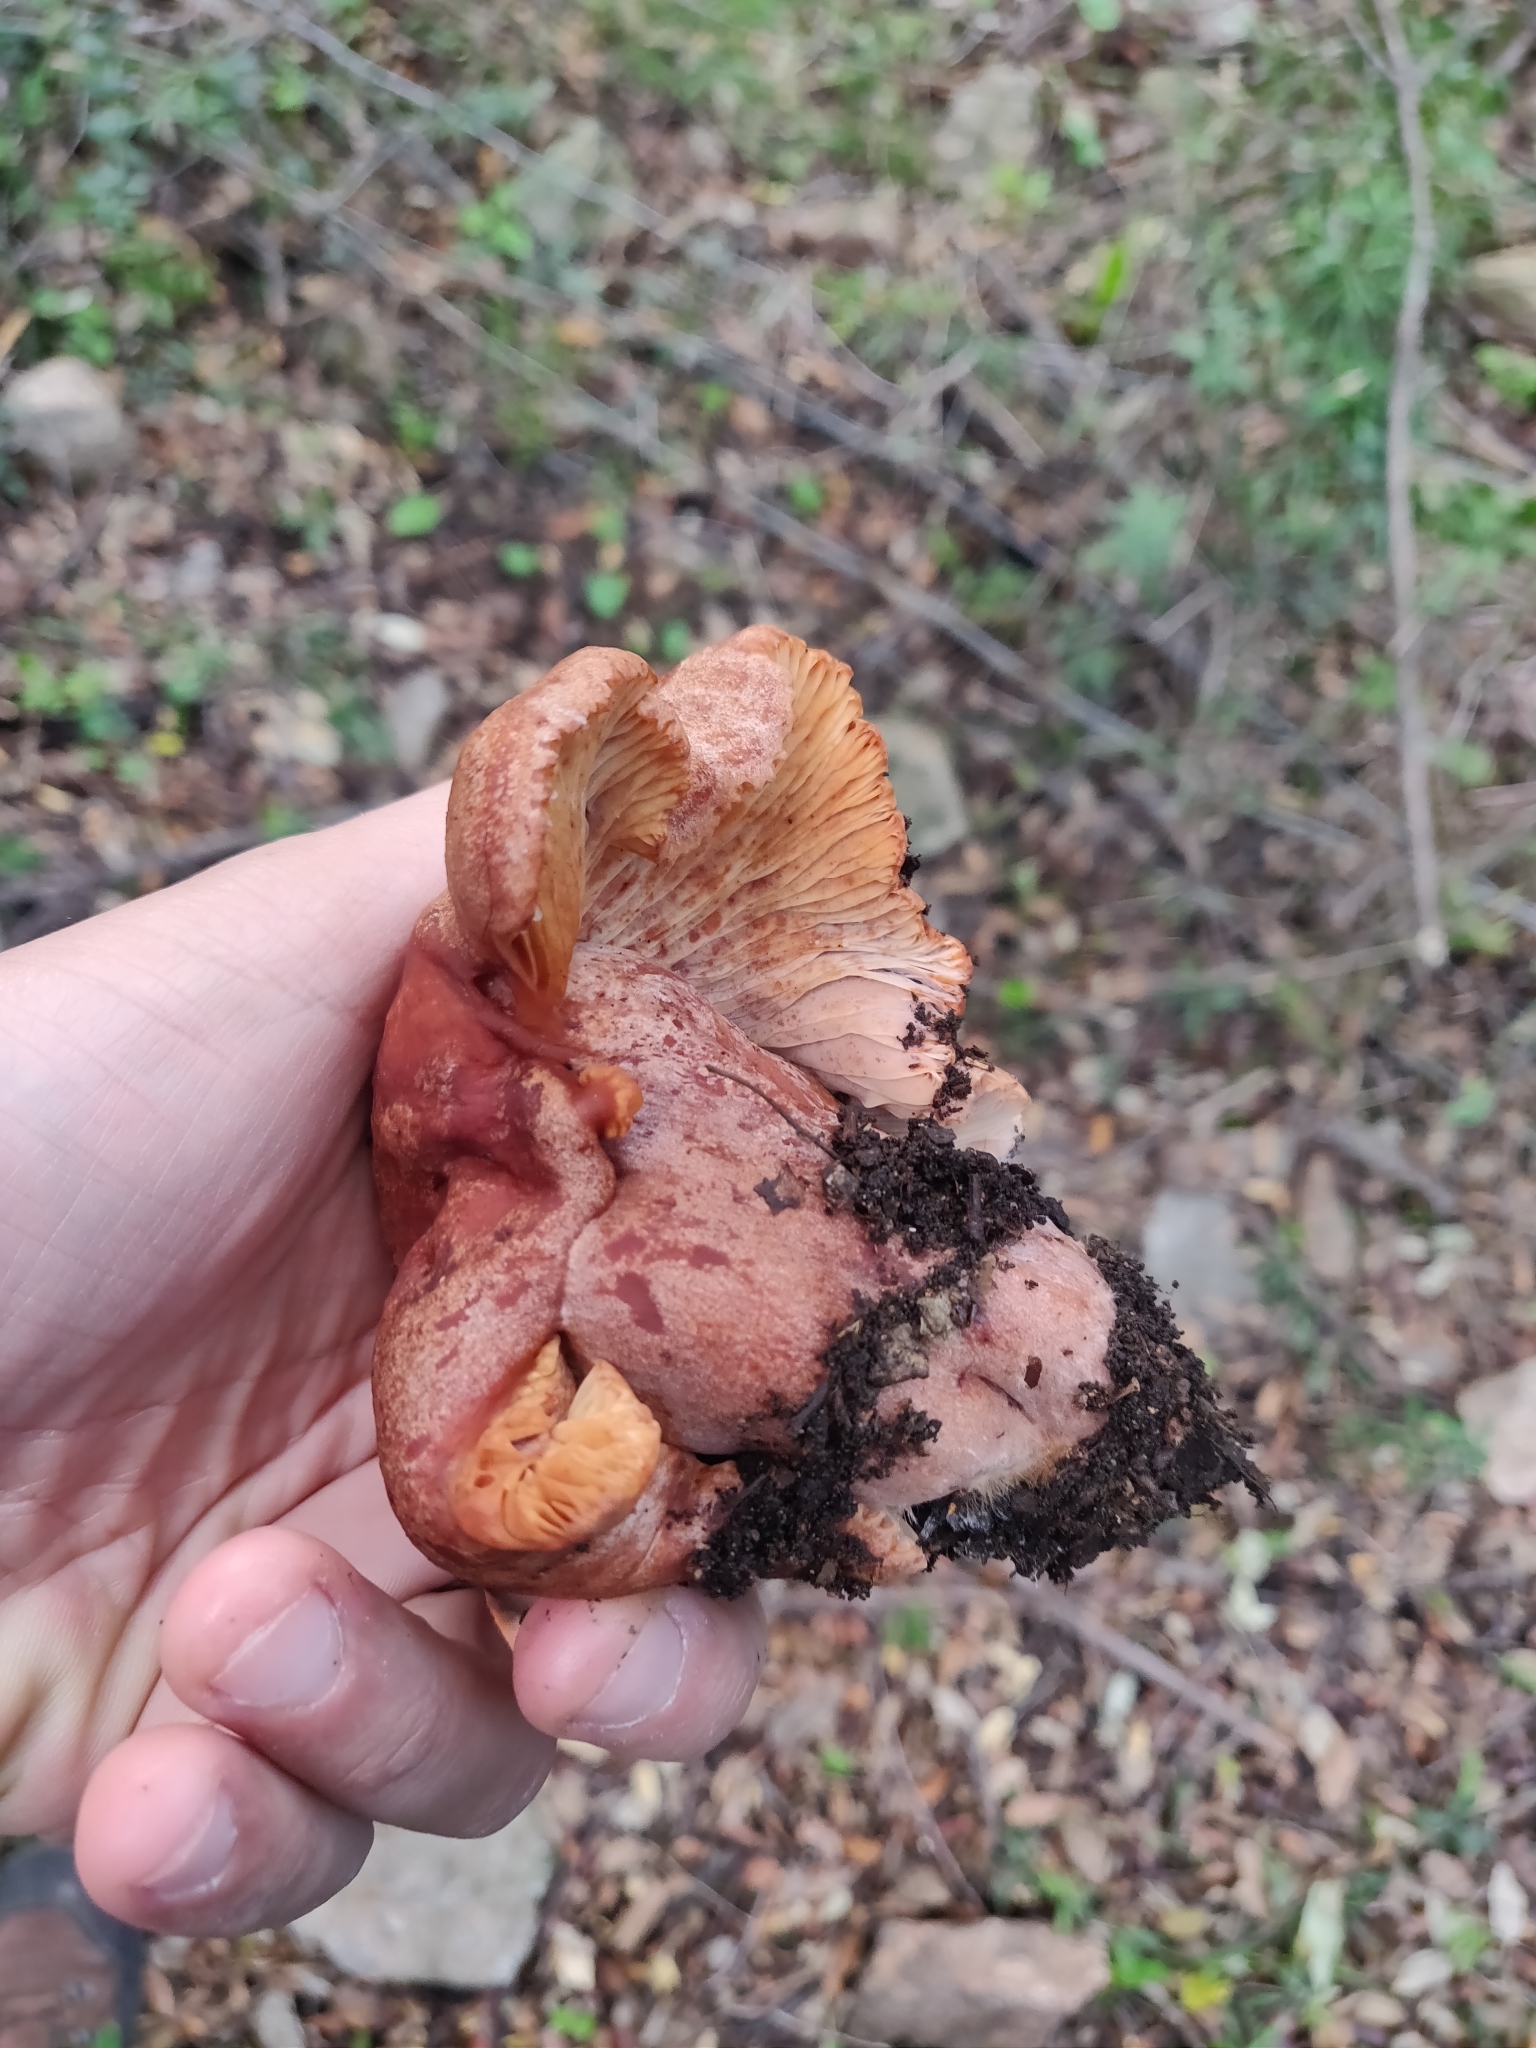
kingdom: Fungi
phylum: Basidiomycota
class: Agaricomycetes
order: Russulales
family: Russulaceae
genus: Lactarius
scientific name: Lactarius zugazae
